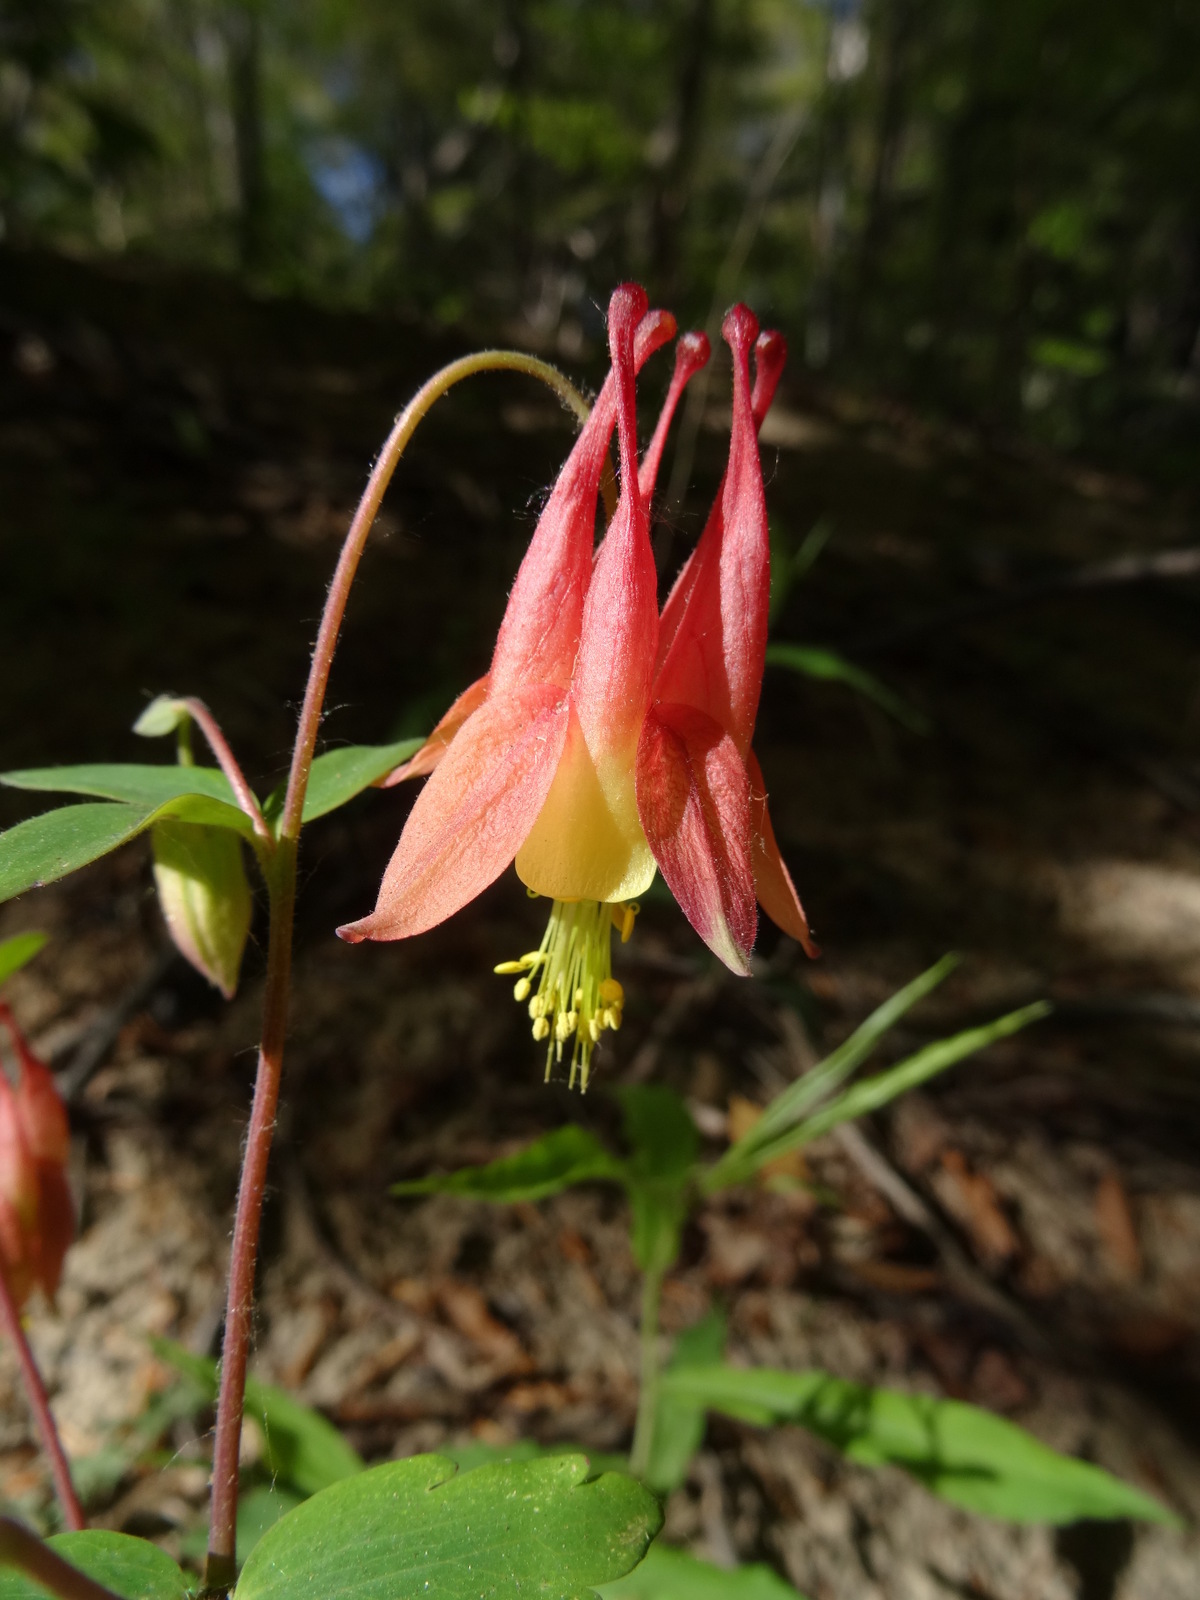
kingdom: Plantae
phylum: Tracheophyta
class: Magnoliopsida
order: Ranunculales
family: Ranunculaceae
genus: Aquilegia
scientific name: Aquilegia canadensis
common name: American columbine
